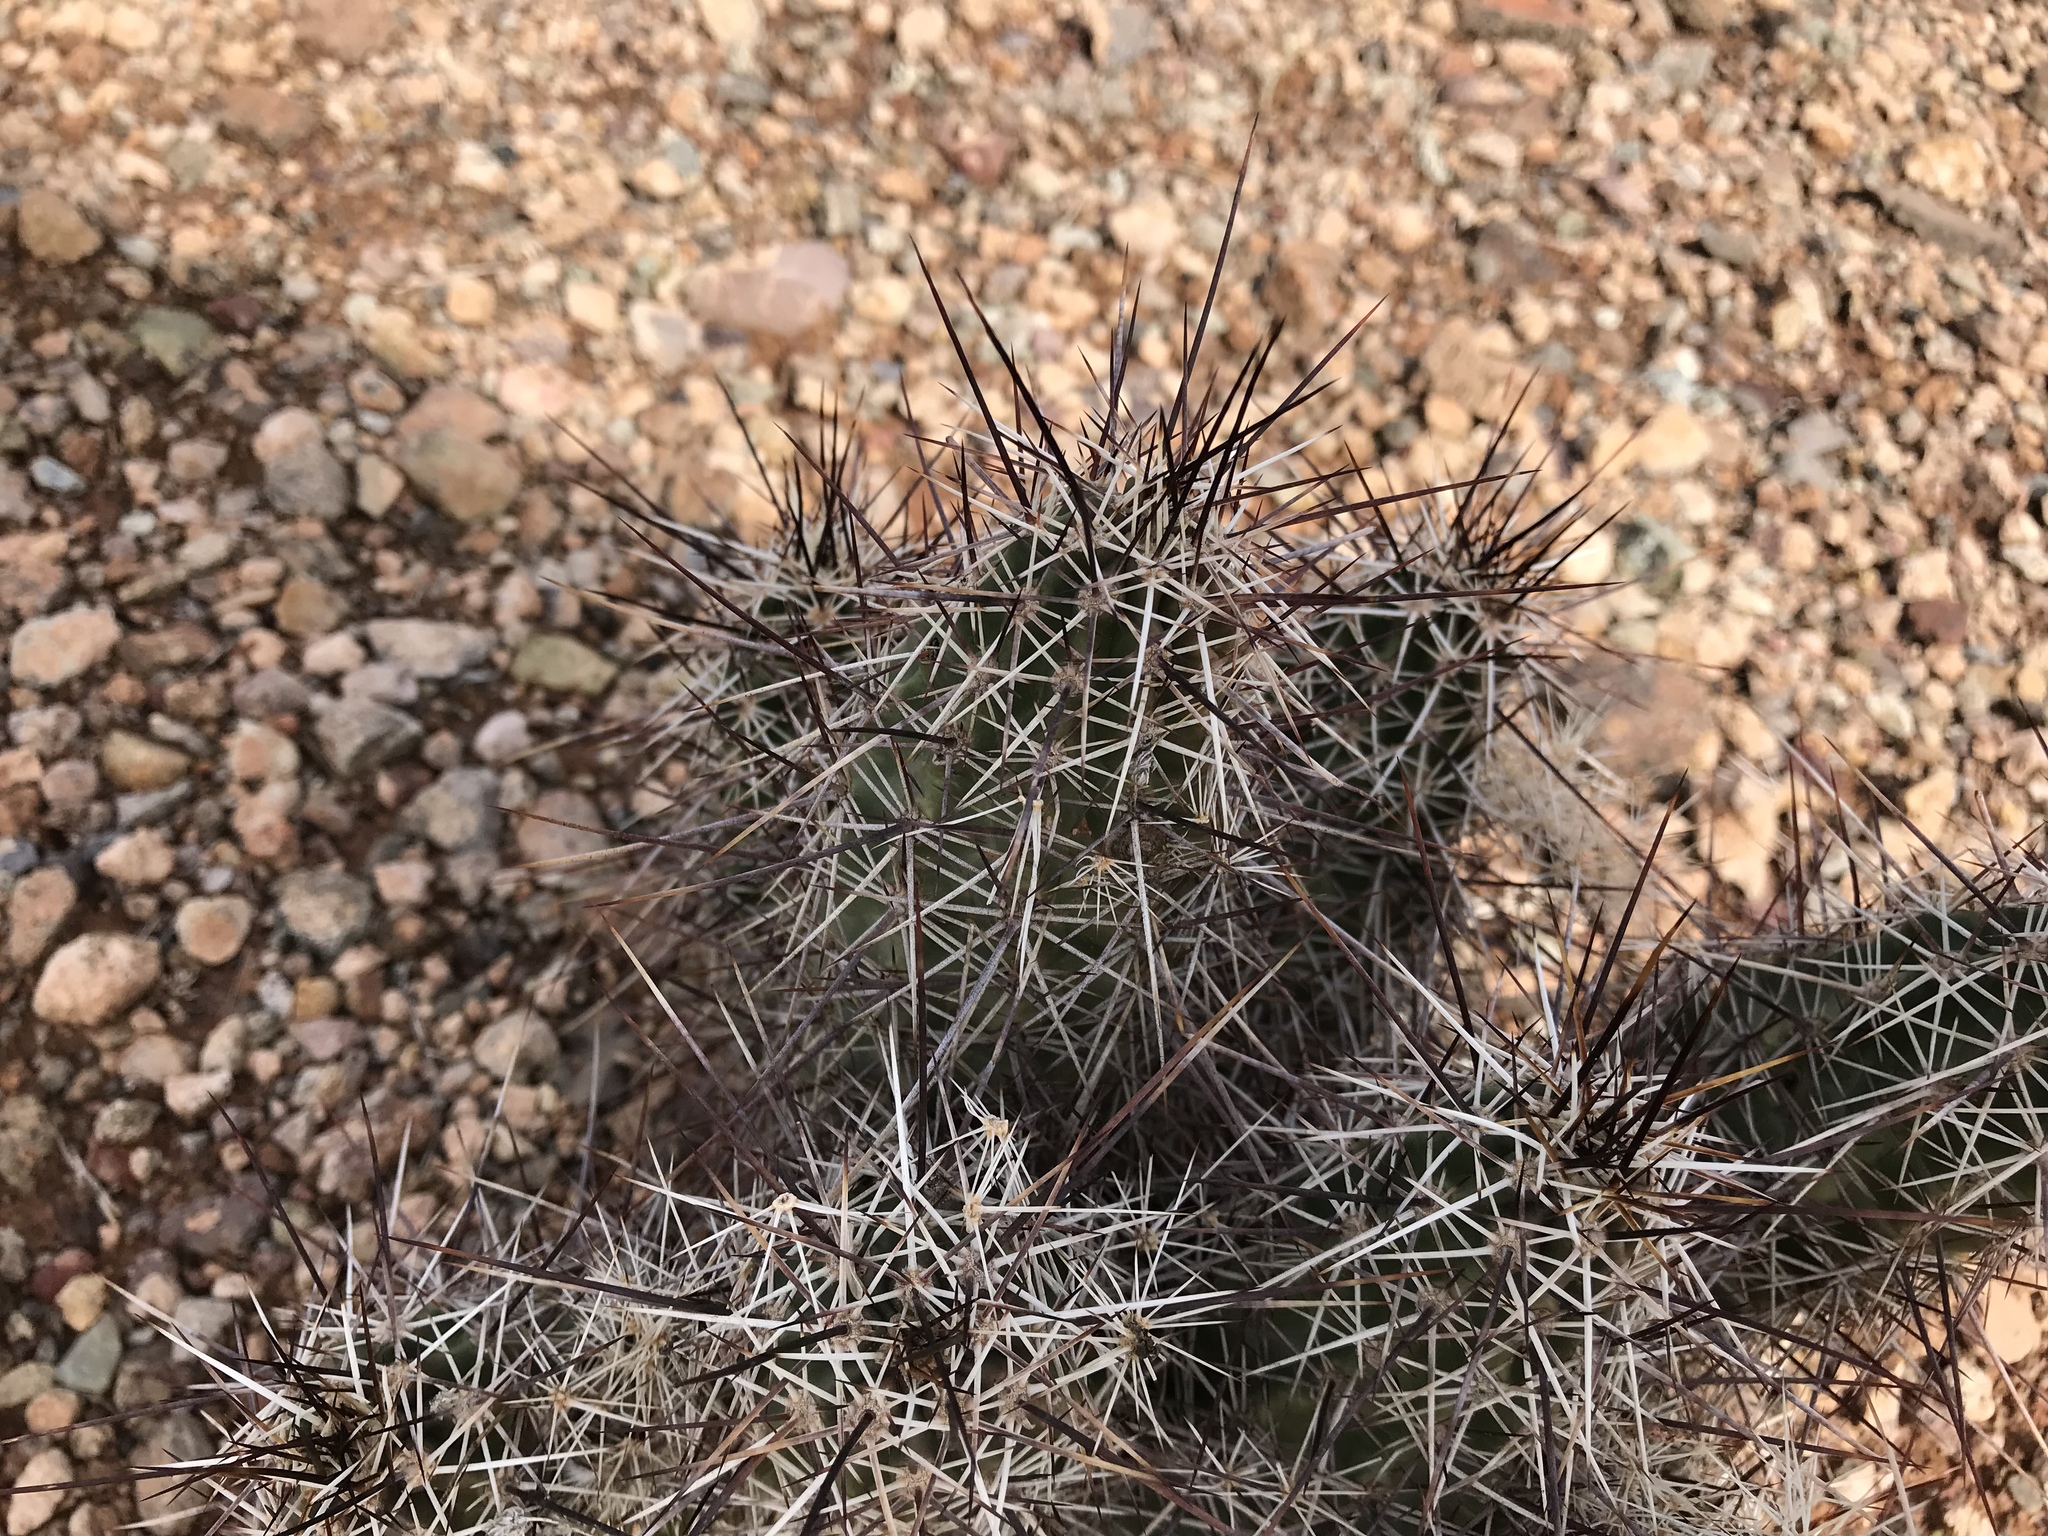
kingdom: Plantae
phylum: Tracheophyta
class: Magnoliopsida
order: Caryophyllales
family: Cactaceae
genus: Echinocereus
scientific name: Echinocereus fasciculatus
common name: Bundle hedgehog
